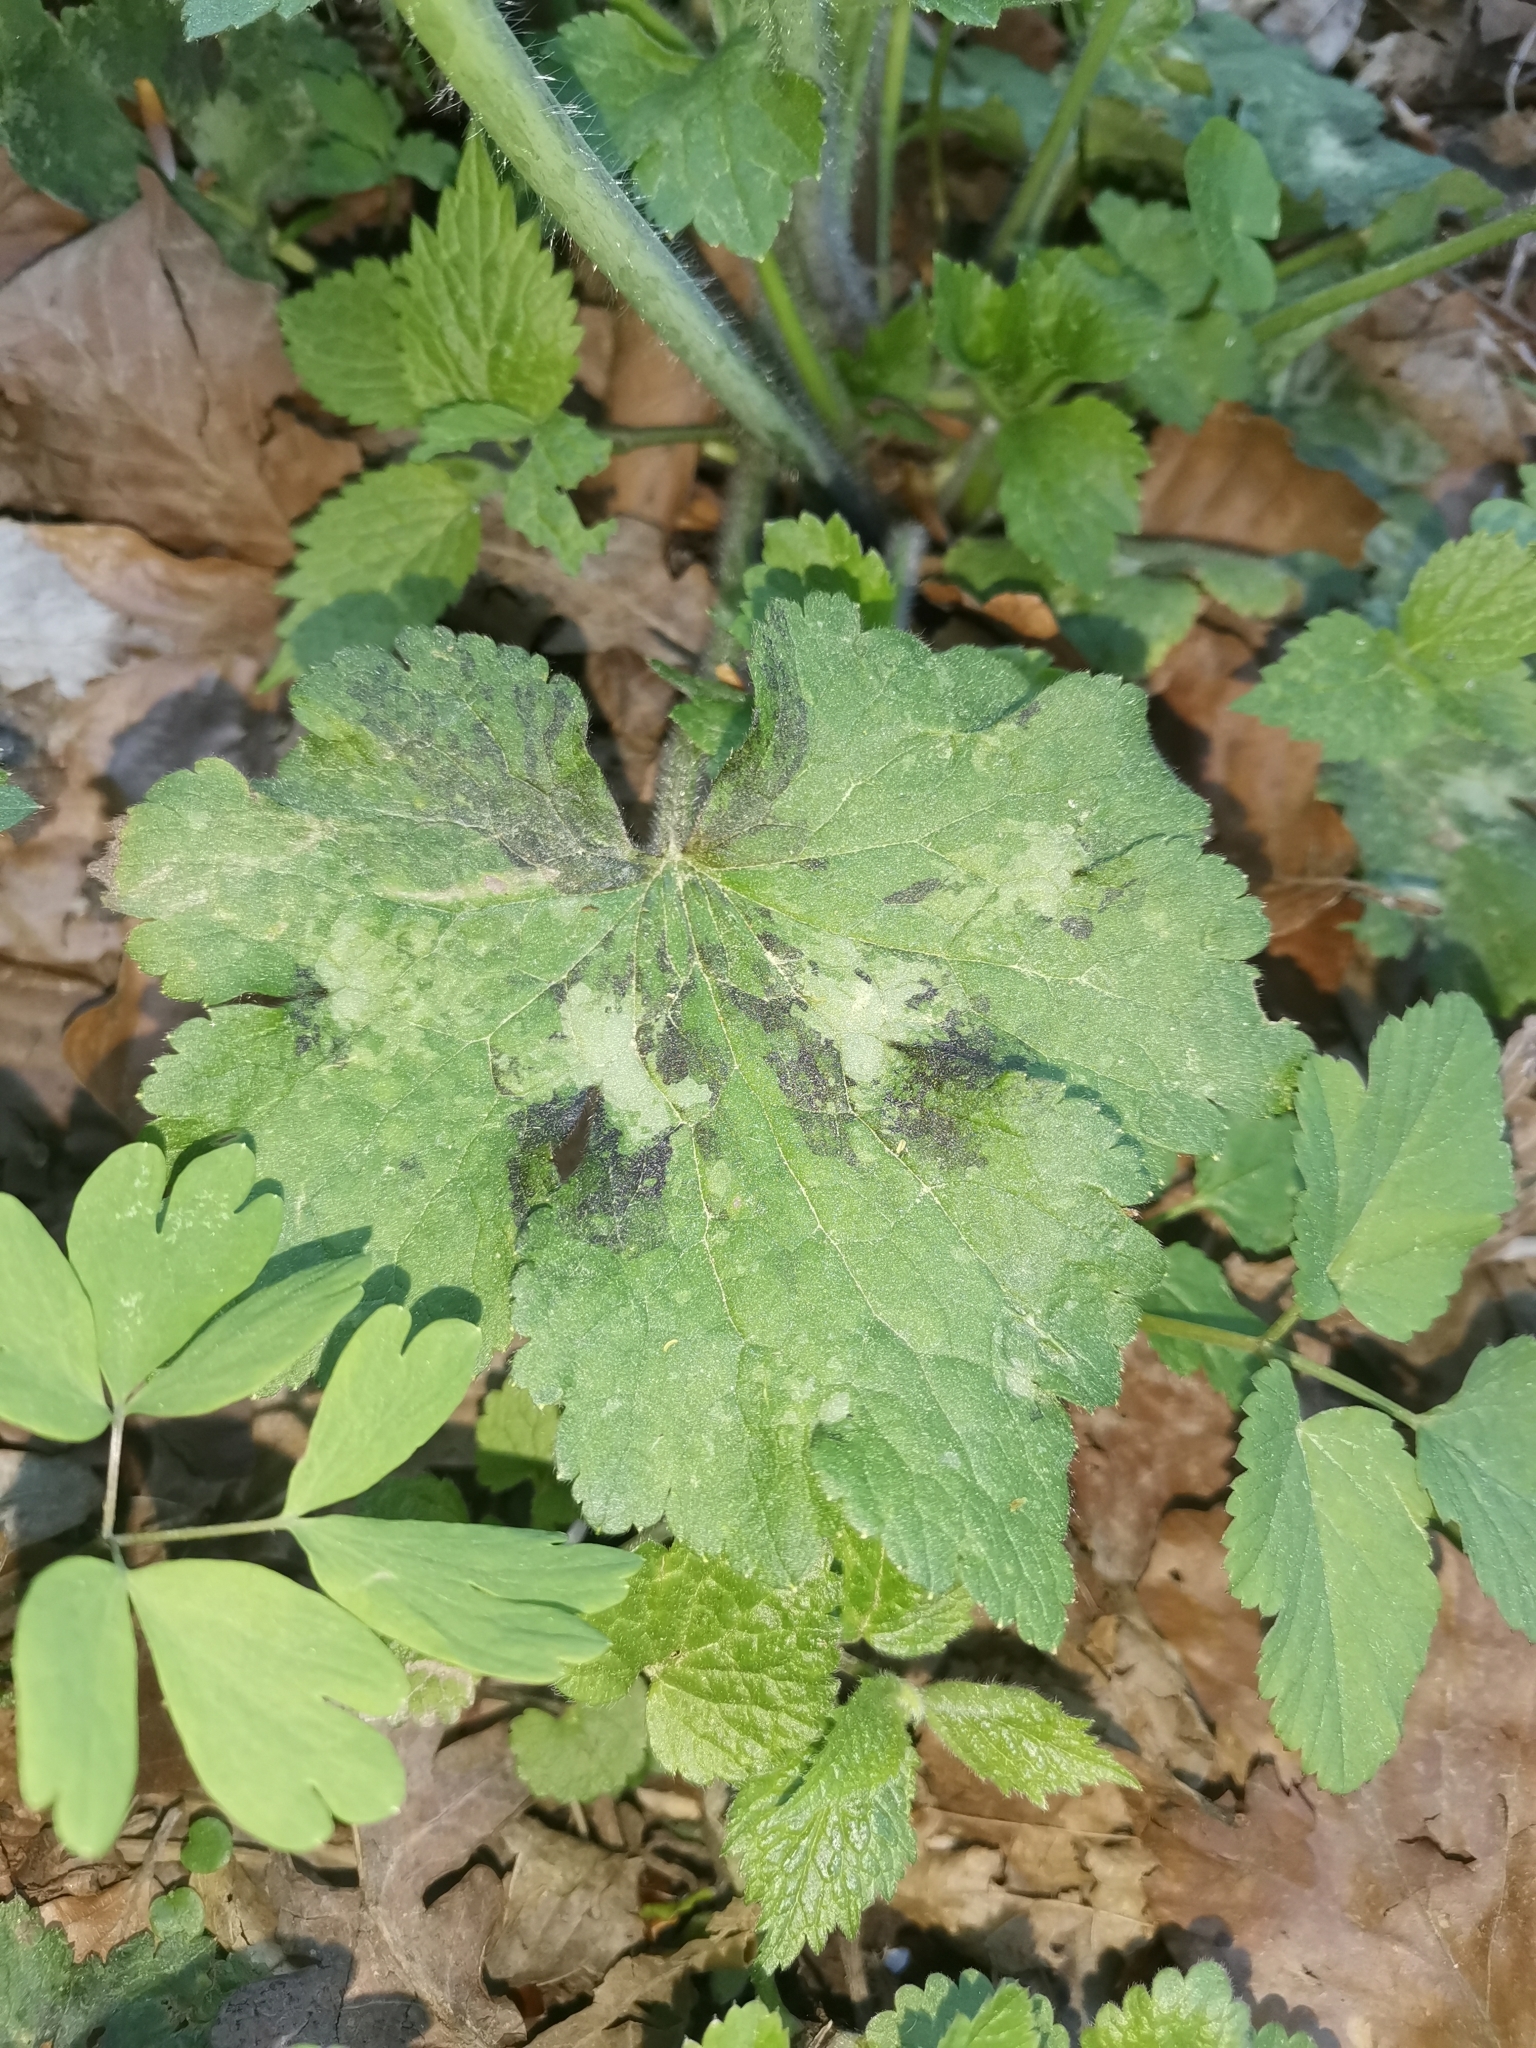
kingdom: Plantae
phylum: Tracheophyta
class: Magnoliopsida
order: Ranunculales
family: Ranunculaceae
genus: Ranunculus
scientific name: Ranunculus lanuginosus
